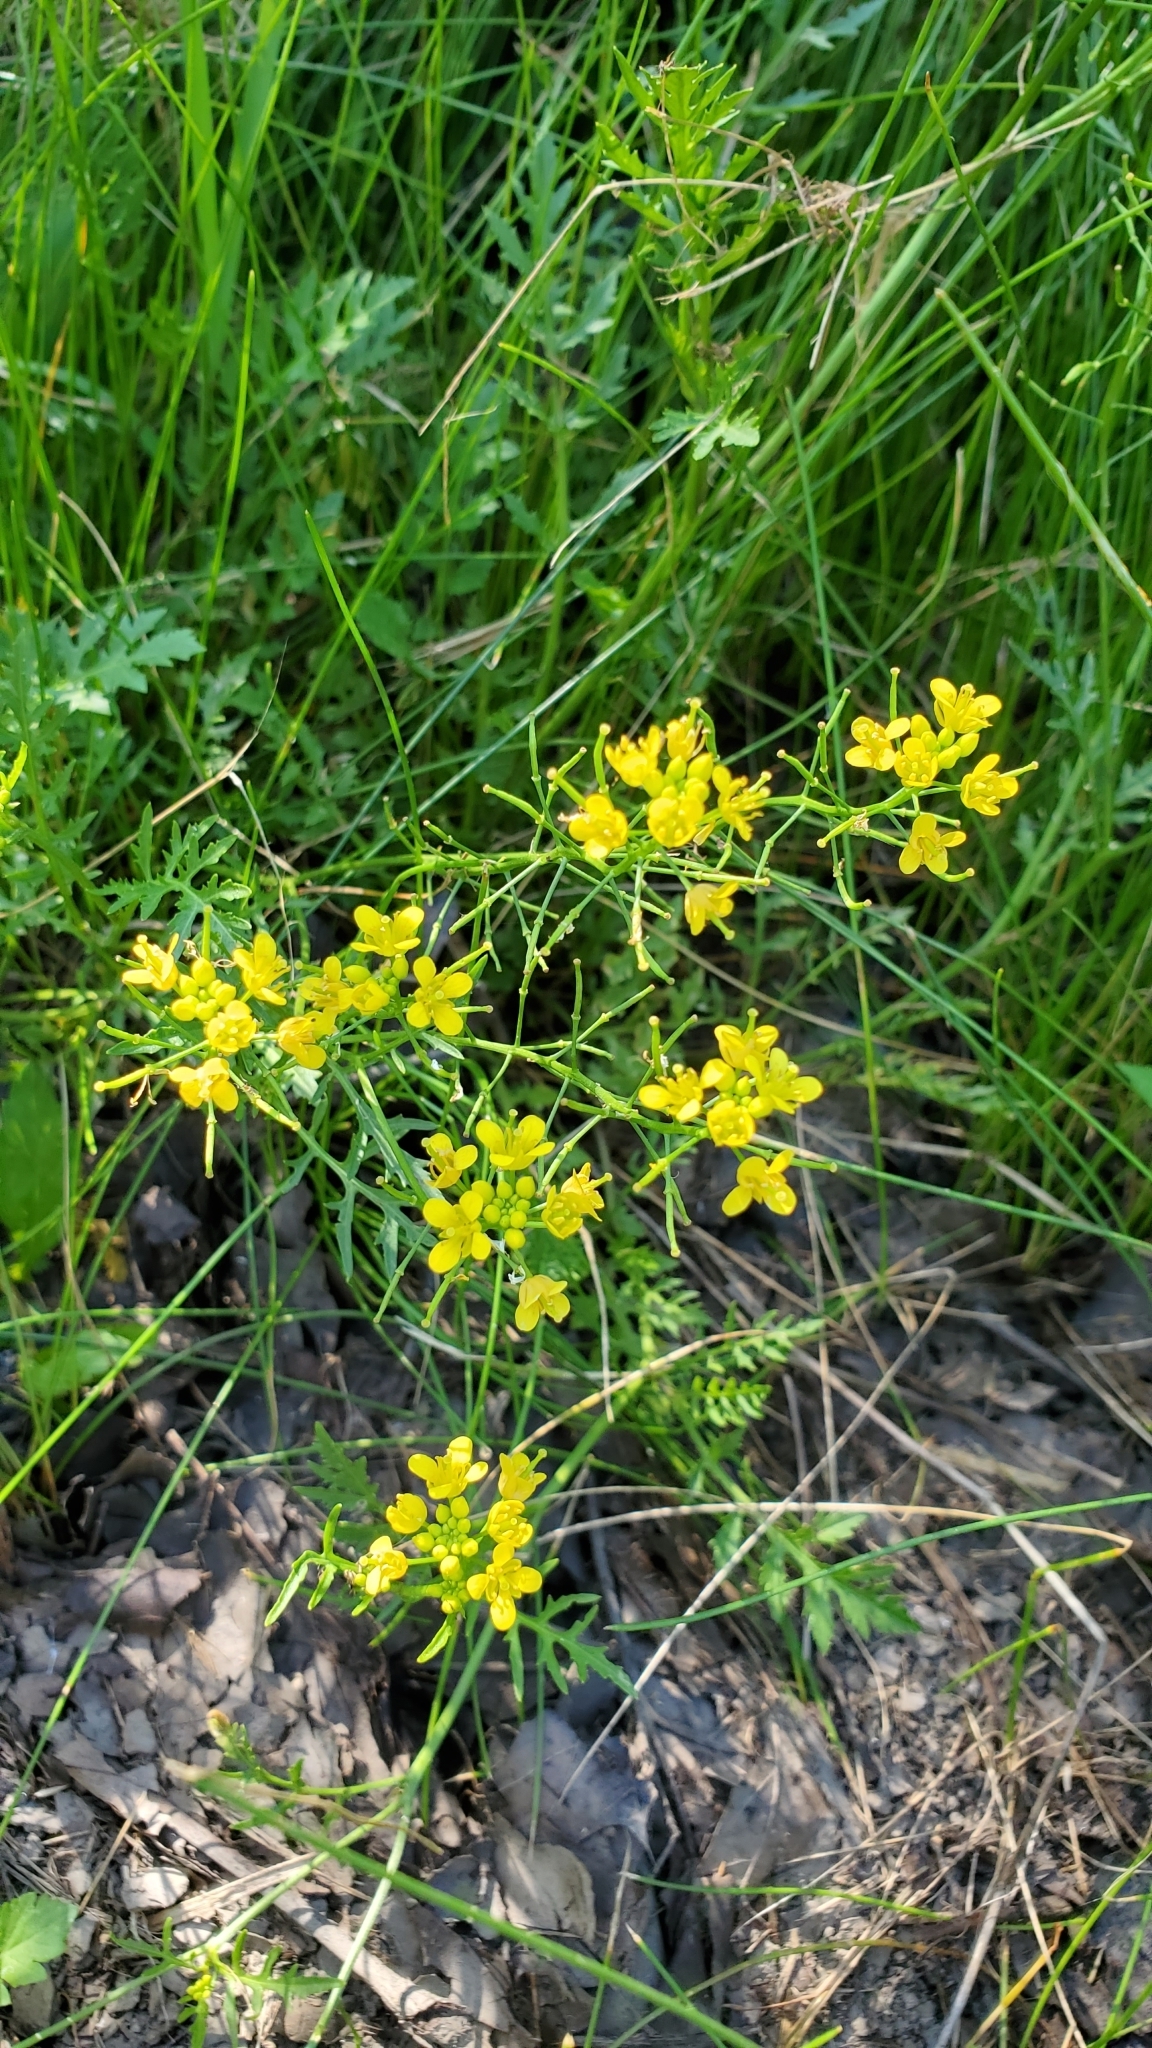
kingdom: Plantae
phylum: Tracheophyta
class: Magnoliopsida
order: Brassicales
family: Brassicaceae
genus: Rorippa
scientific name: Rorippa sylvestris
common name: Creeping yellowcress
